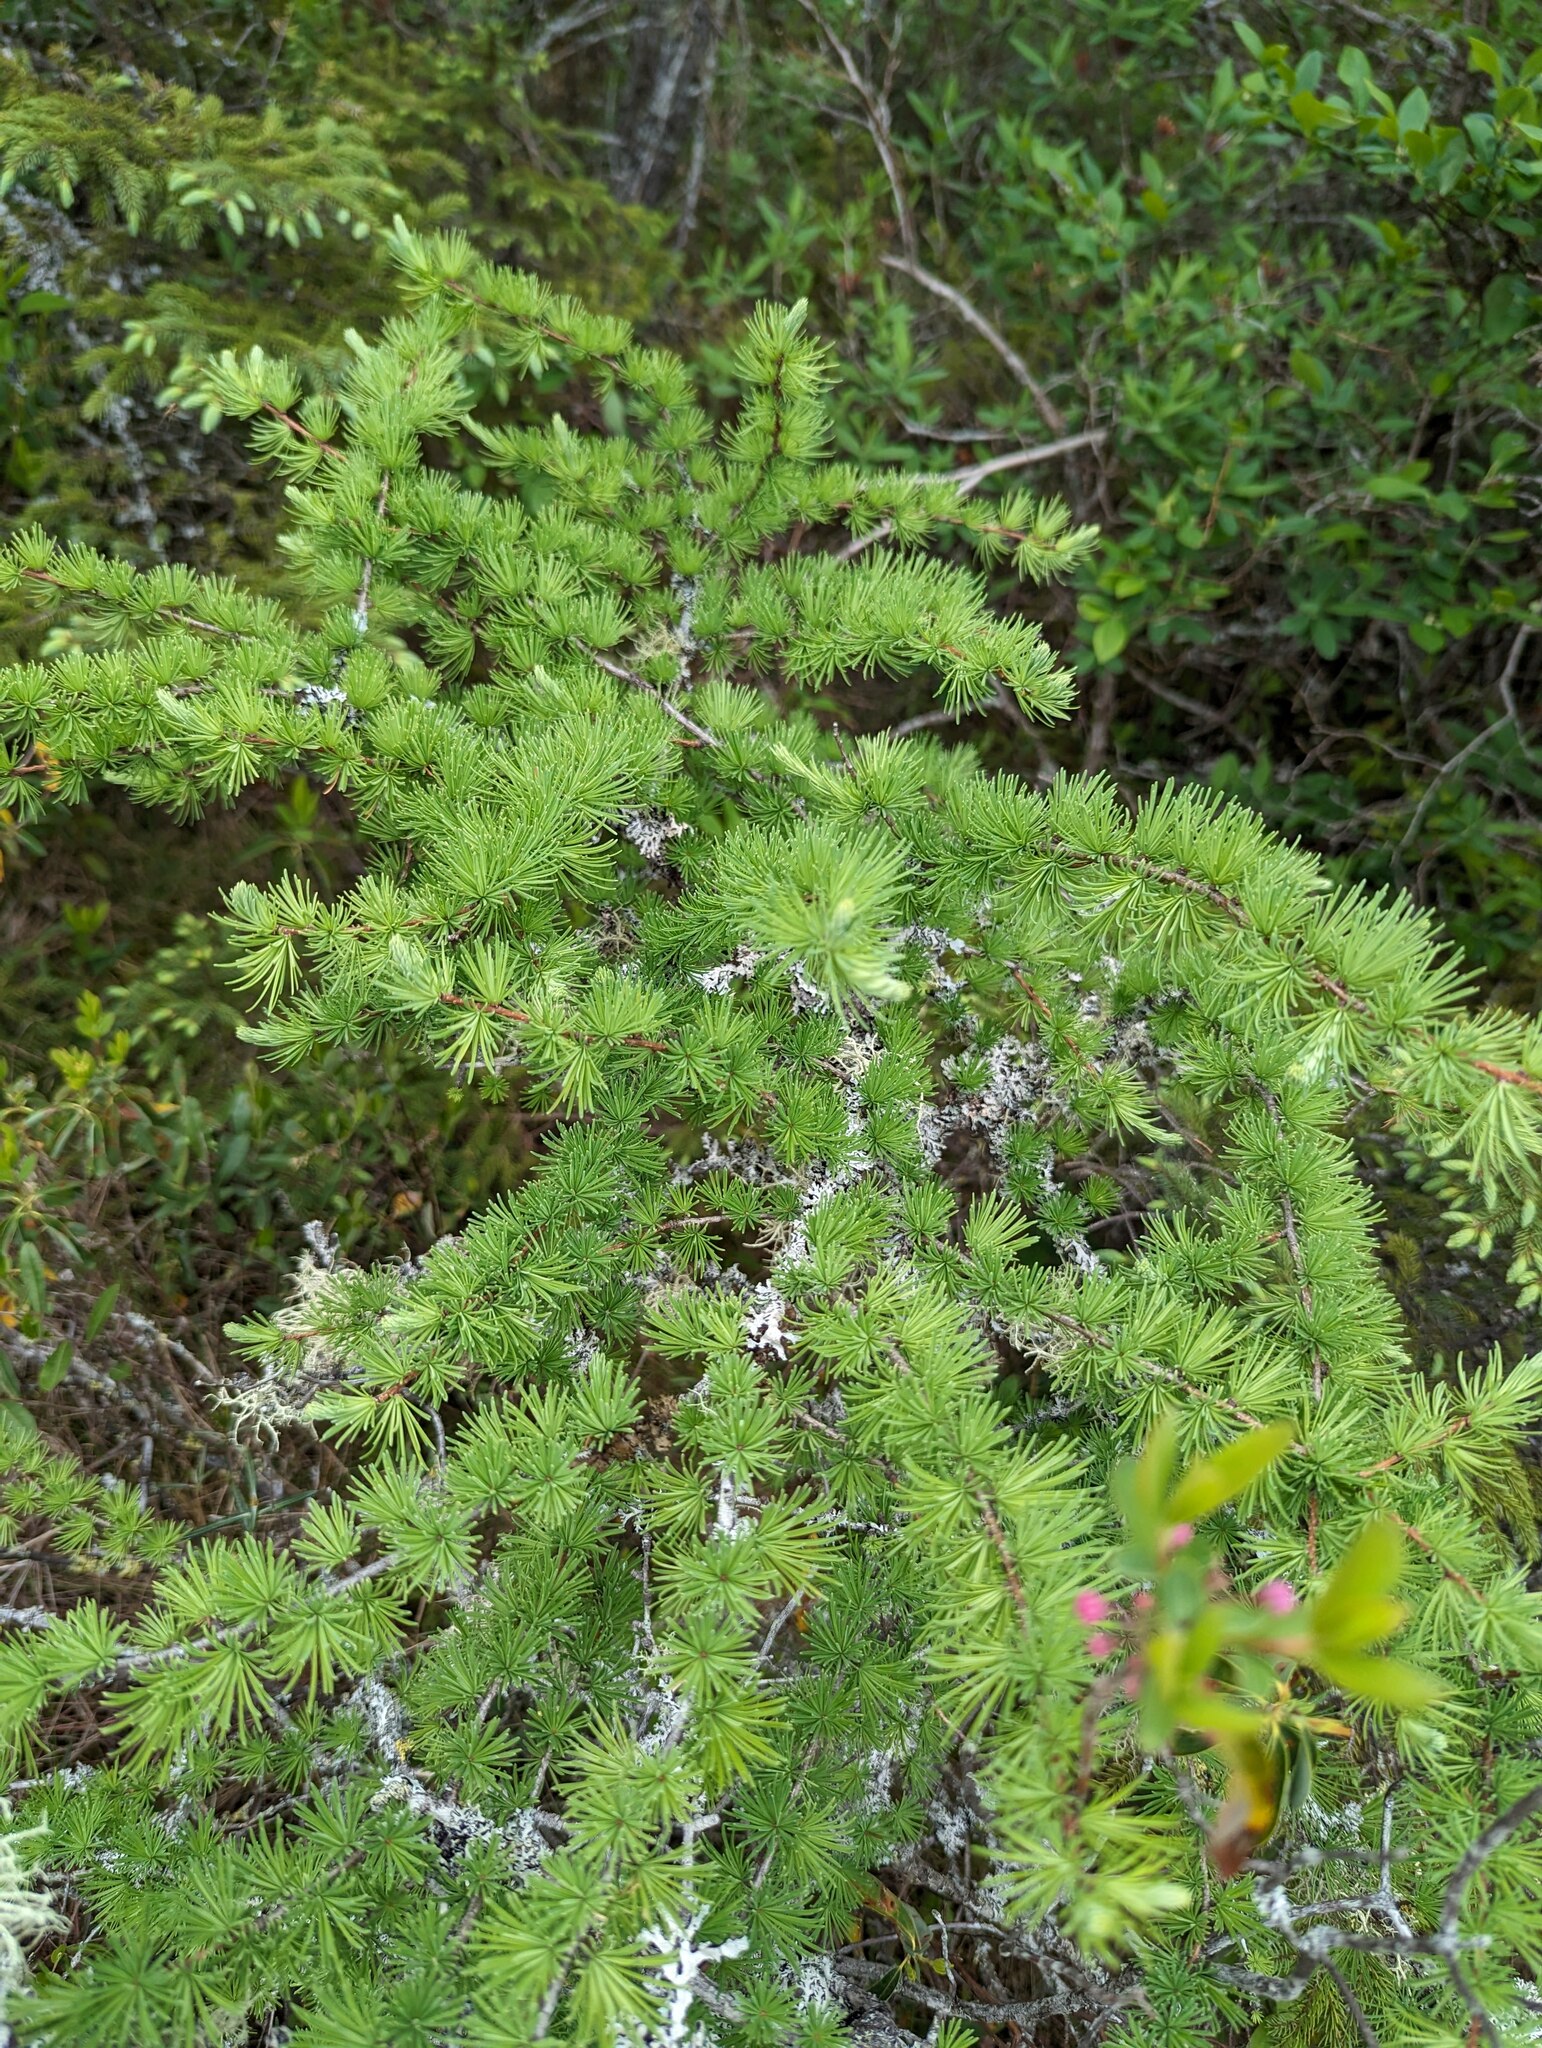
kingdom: Plantae
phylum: Tracheophyta
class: Pinopsida
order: Pinales
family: Pinaceae
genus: Larix
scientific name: Larix laricina
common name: American larch
